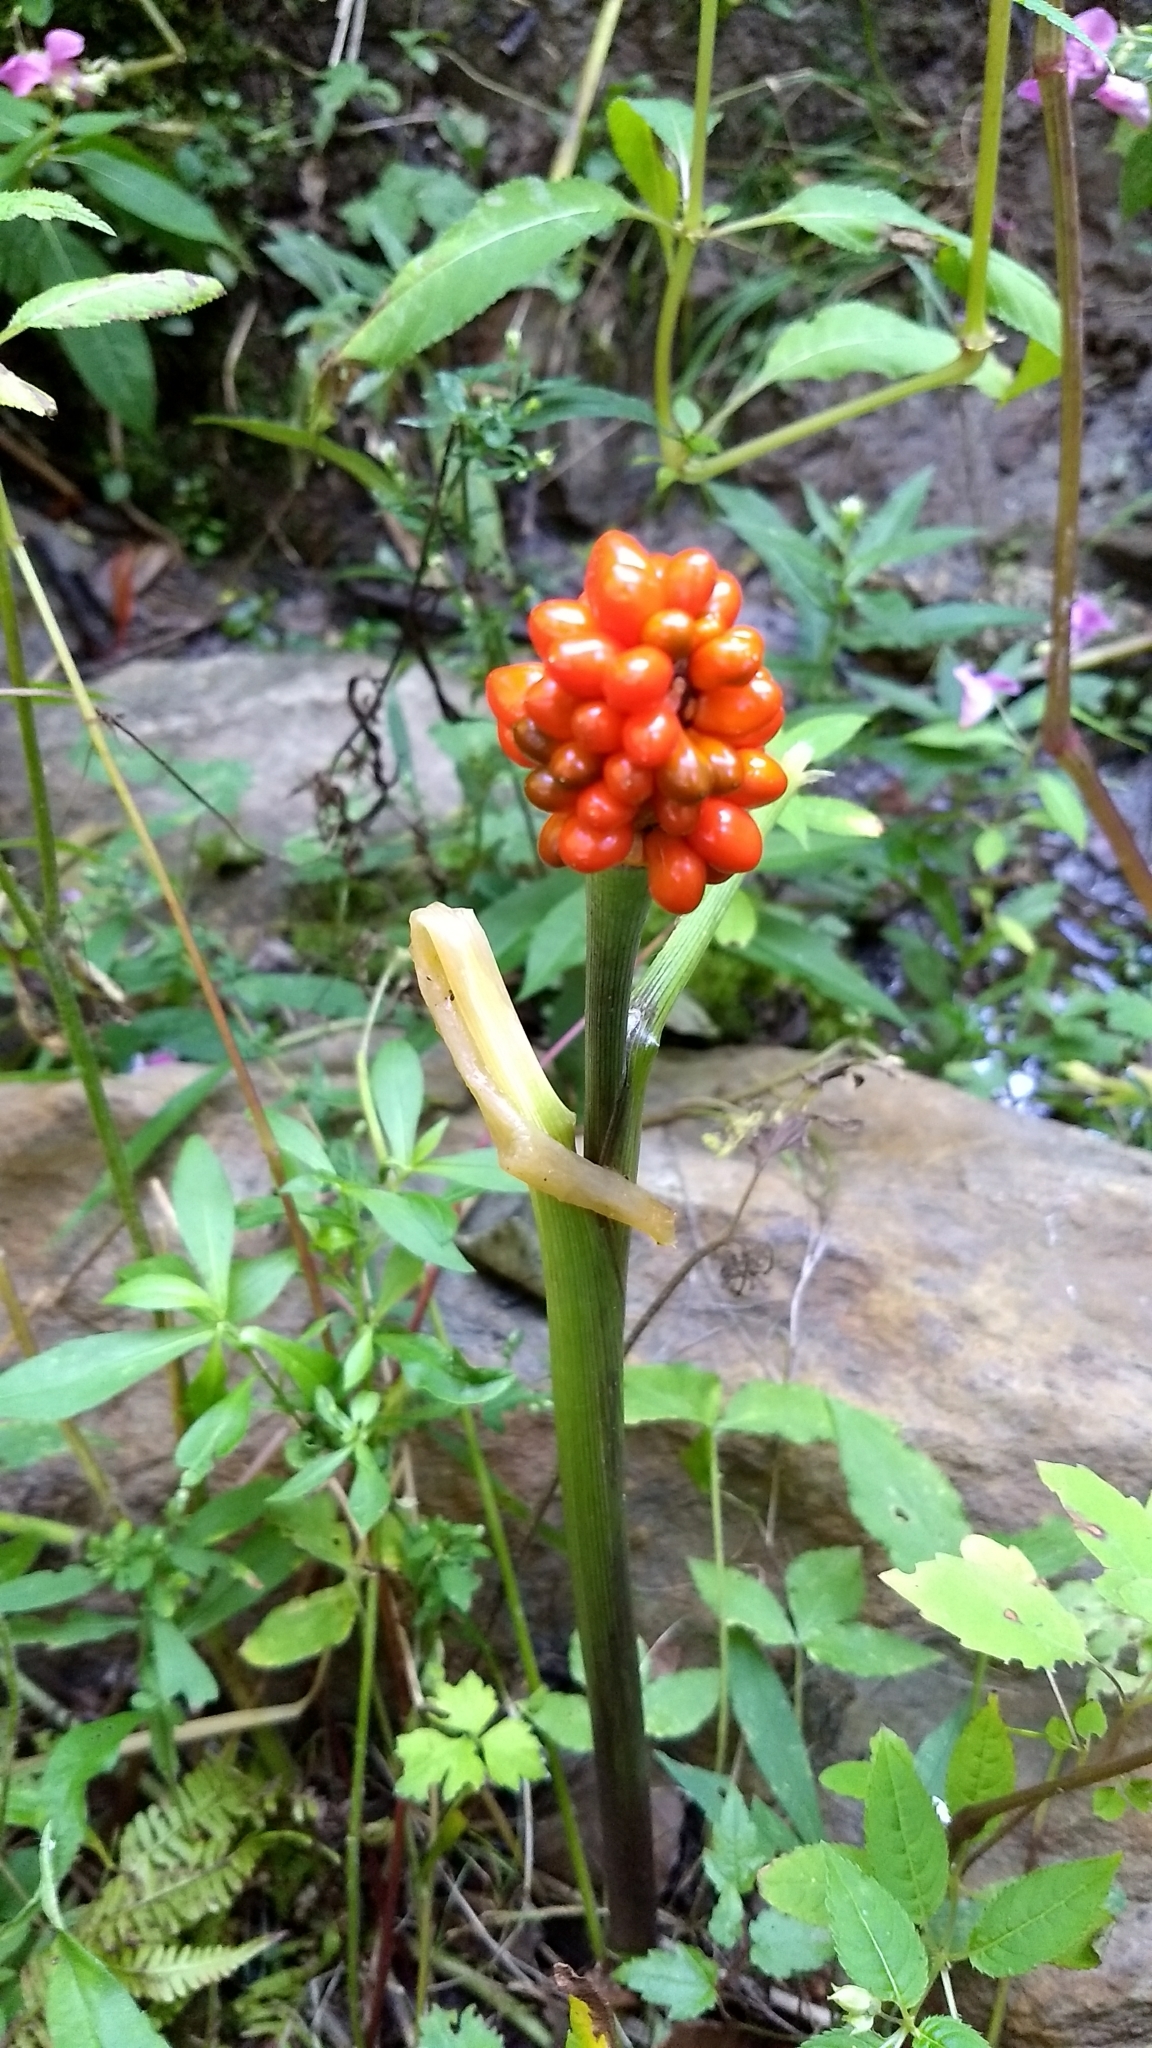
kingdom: Plantae
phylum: Tracheophyta
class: Liliopsida
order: Alismatales
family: Araceae
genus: Arisaema
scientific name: Arisaema triphyllum
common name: Jack-in-the-pulpit
